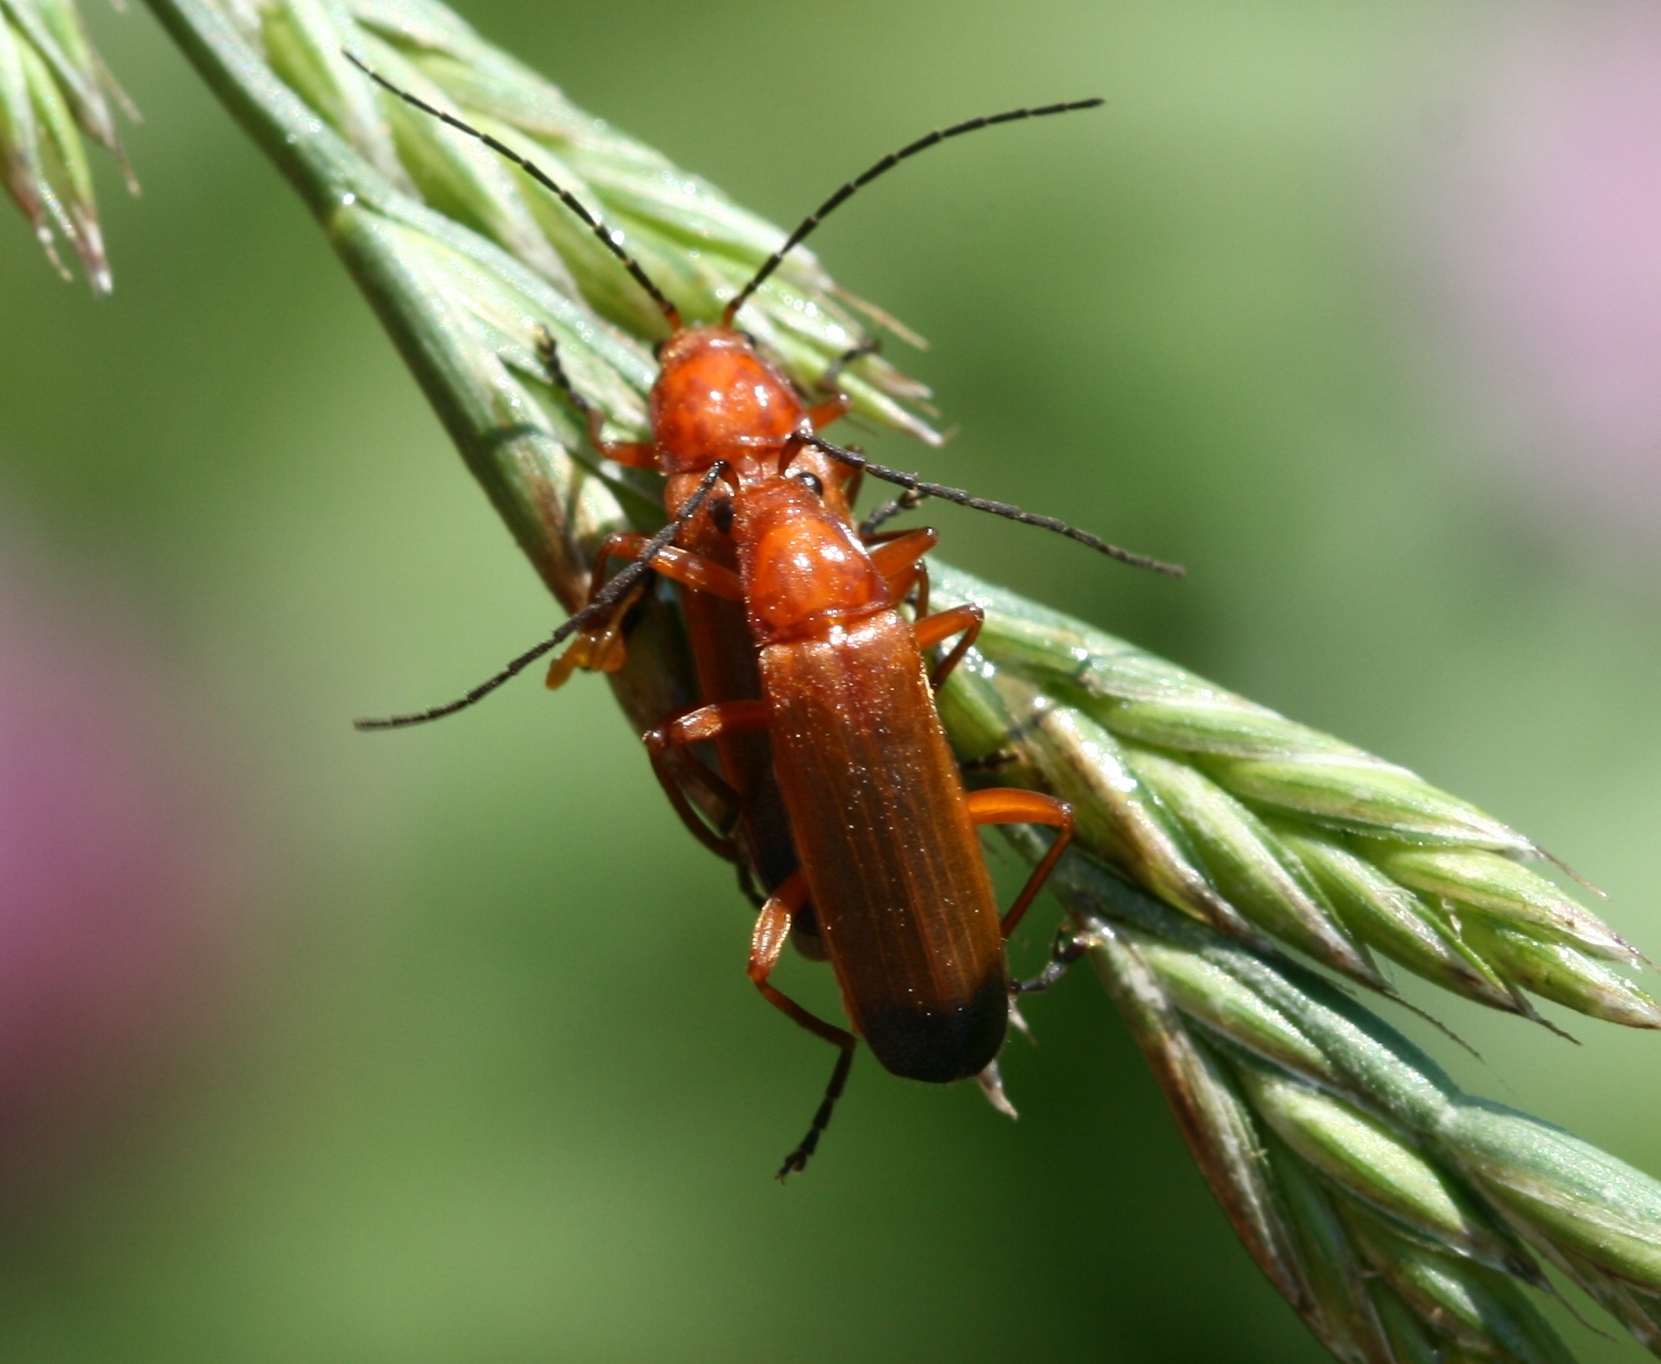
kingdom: Animalia
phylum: Arthropoda
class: Insecta
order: Coleoptera
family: Cantharidae
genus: Rhagonycha
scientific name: Rhagonycha fulva
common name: Common red soldier beetle
